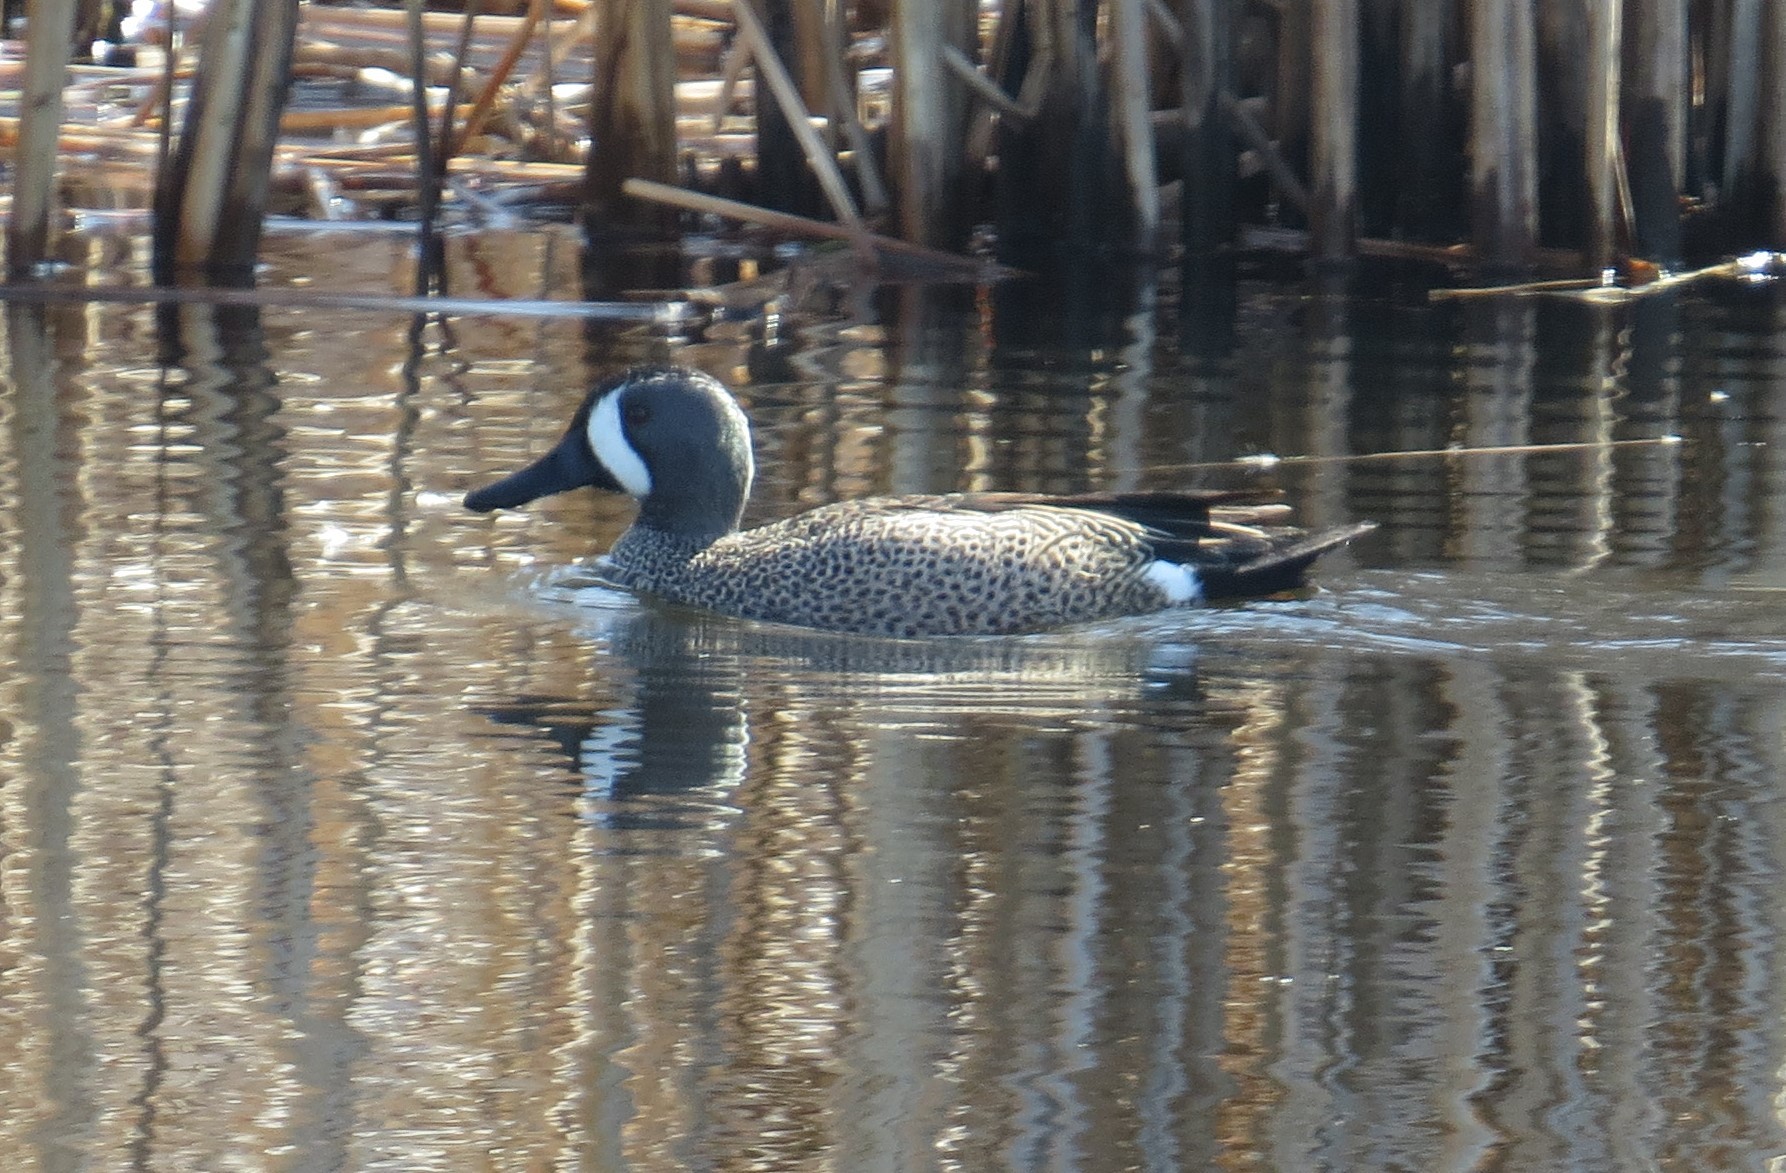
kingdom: Animalia
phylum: Chordata
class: Aves
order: Anseriformes
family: Anatidae
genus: Spatula
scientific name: Spatula discors
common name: Blue-winged teal
